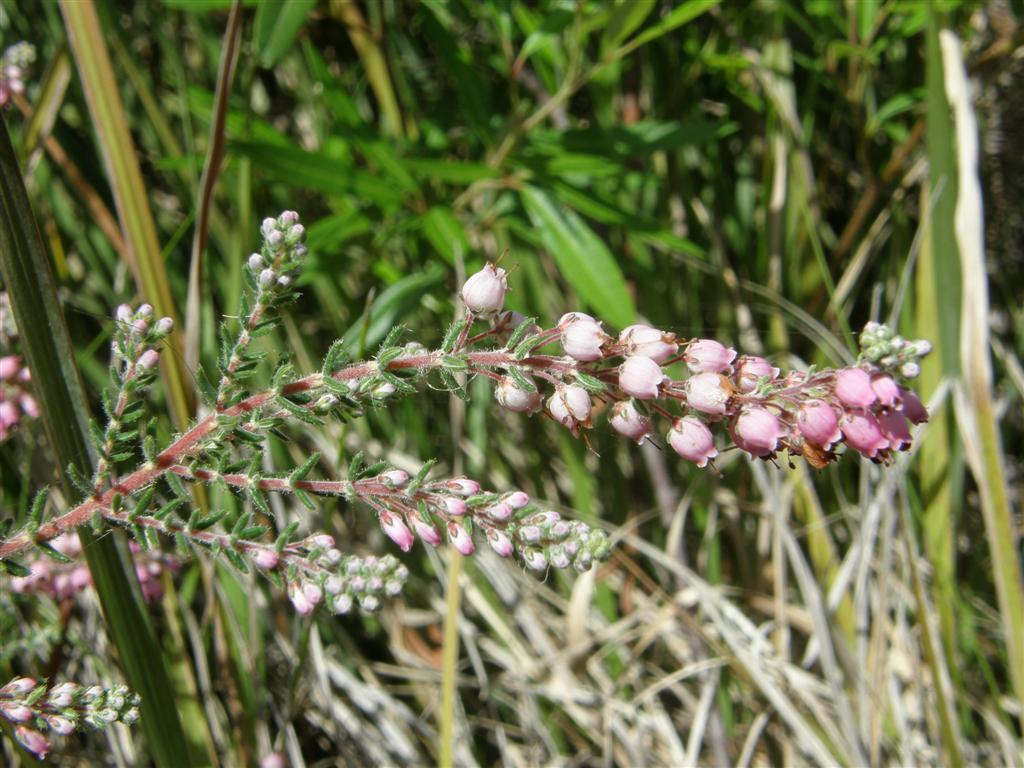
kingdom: Plantae
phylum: Tracheophyta
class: Magnoliopsida
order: Ericales
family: Ericaceae
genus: Erica
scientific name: Erica racemosa
